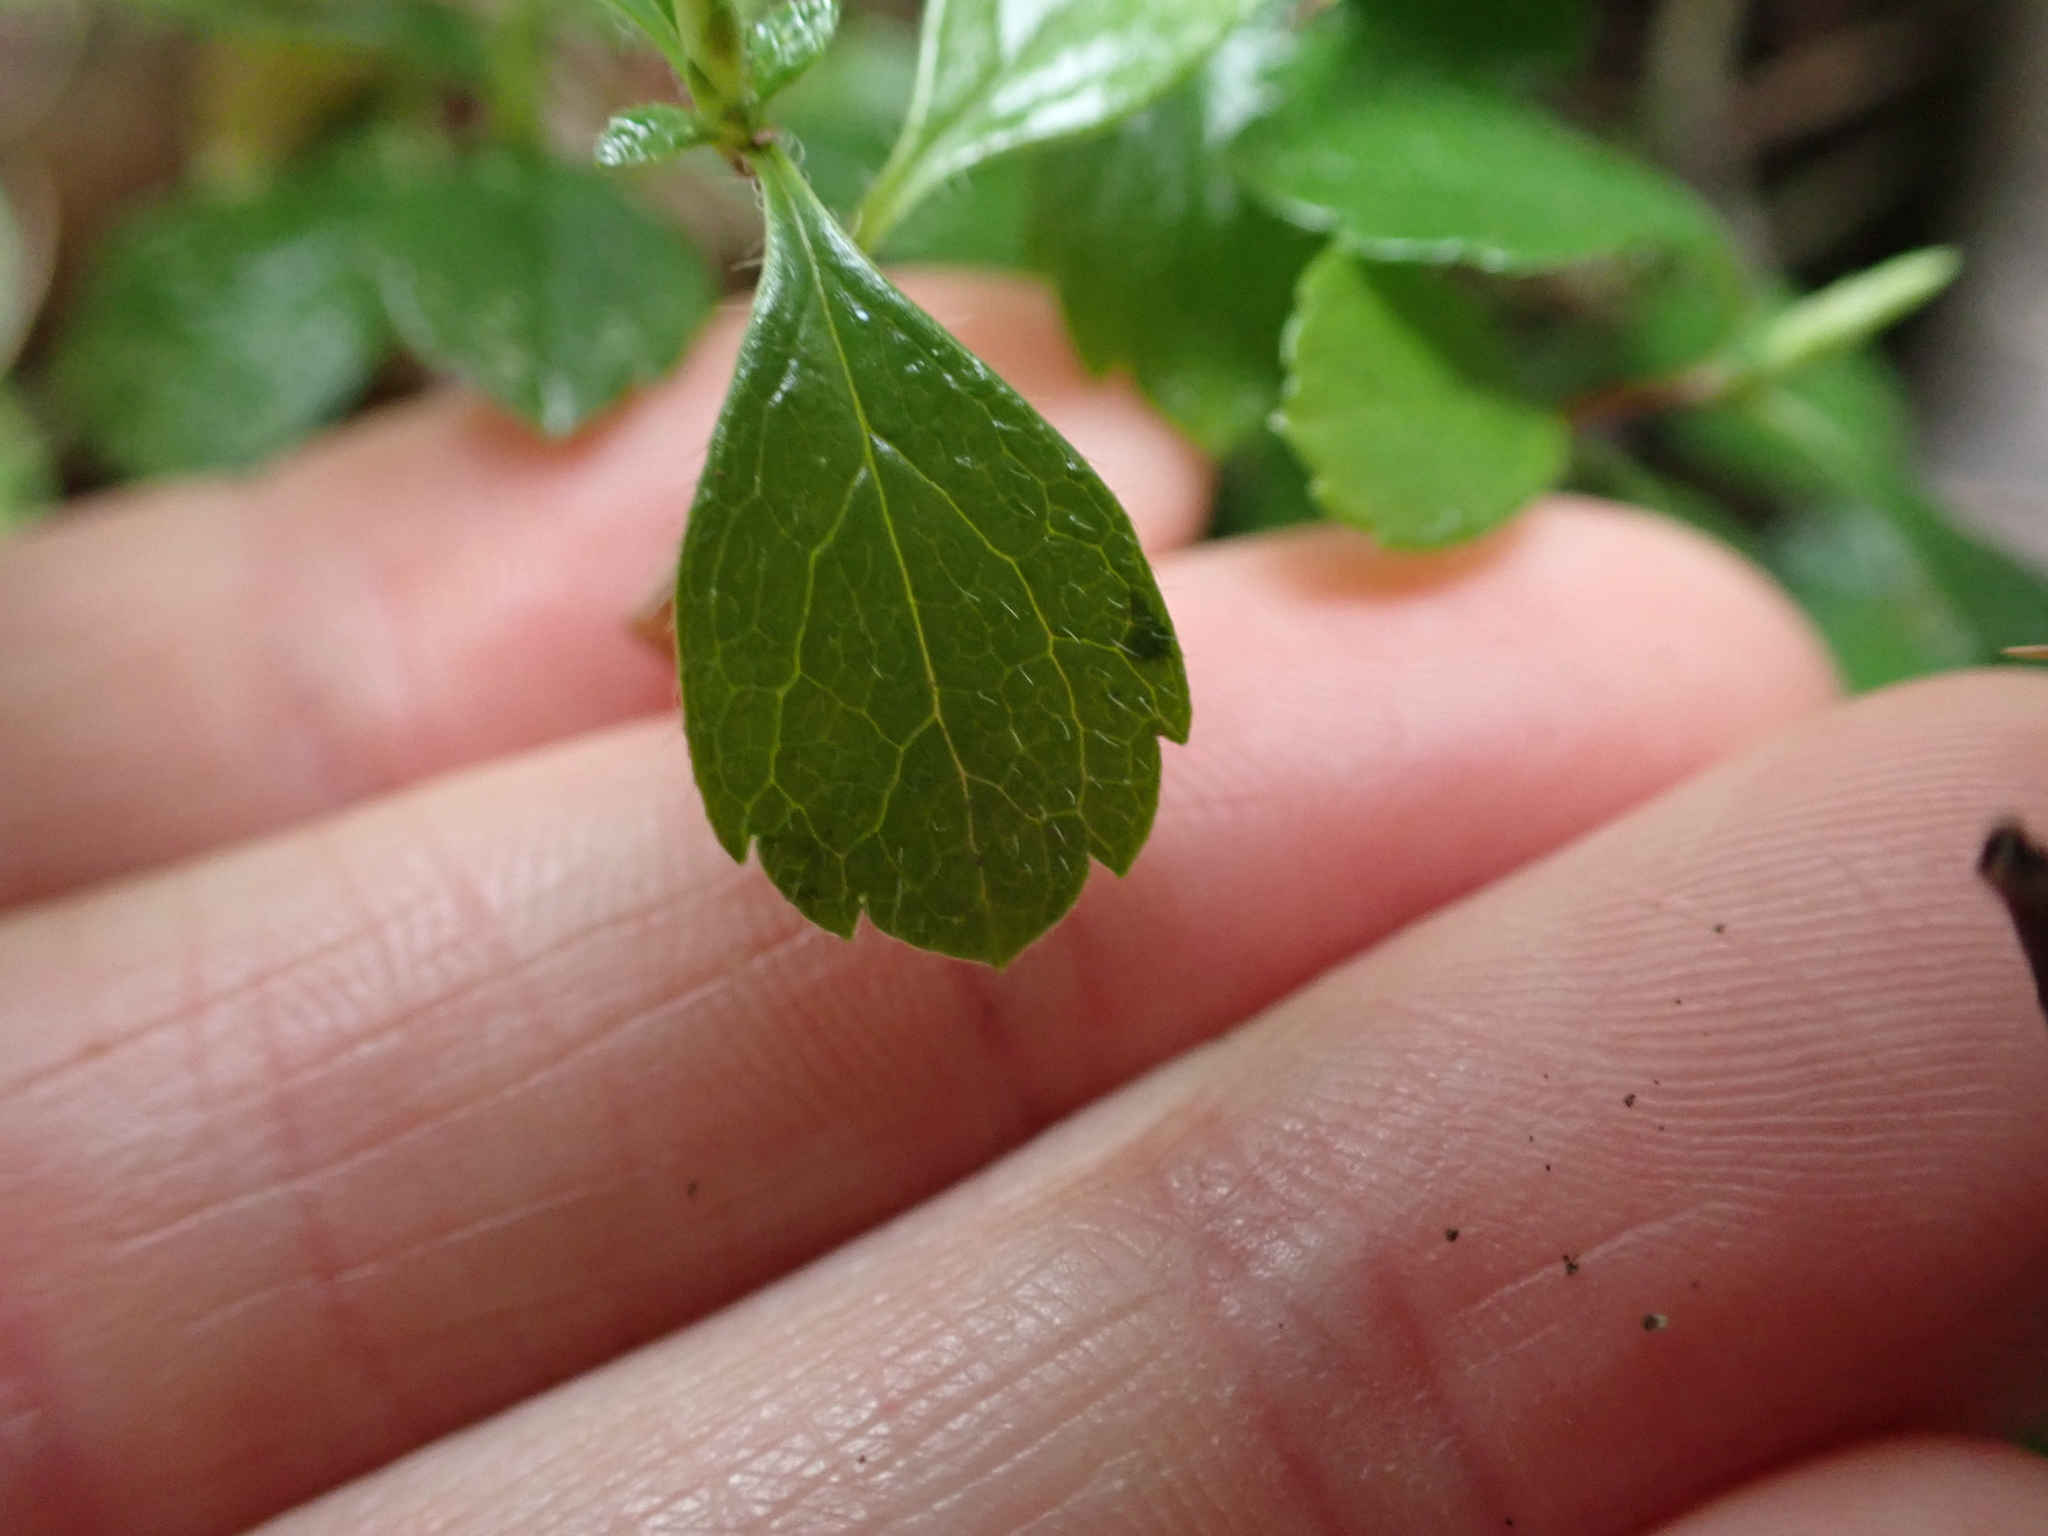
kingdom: Plantae
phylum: Tracheophyta
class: Magnoliopsida
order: Dipsacales
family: Caprifoliaceae
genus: Linnaea
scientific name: Linnaea borealis
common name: Twinflower
